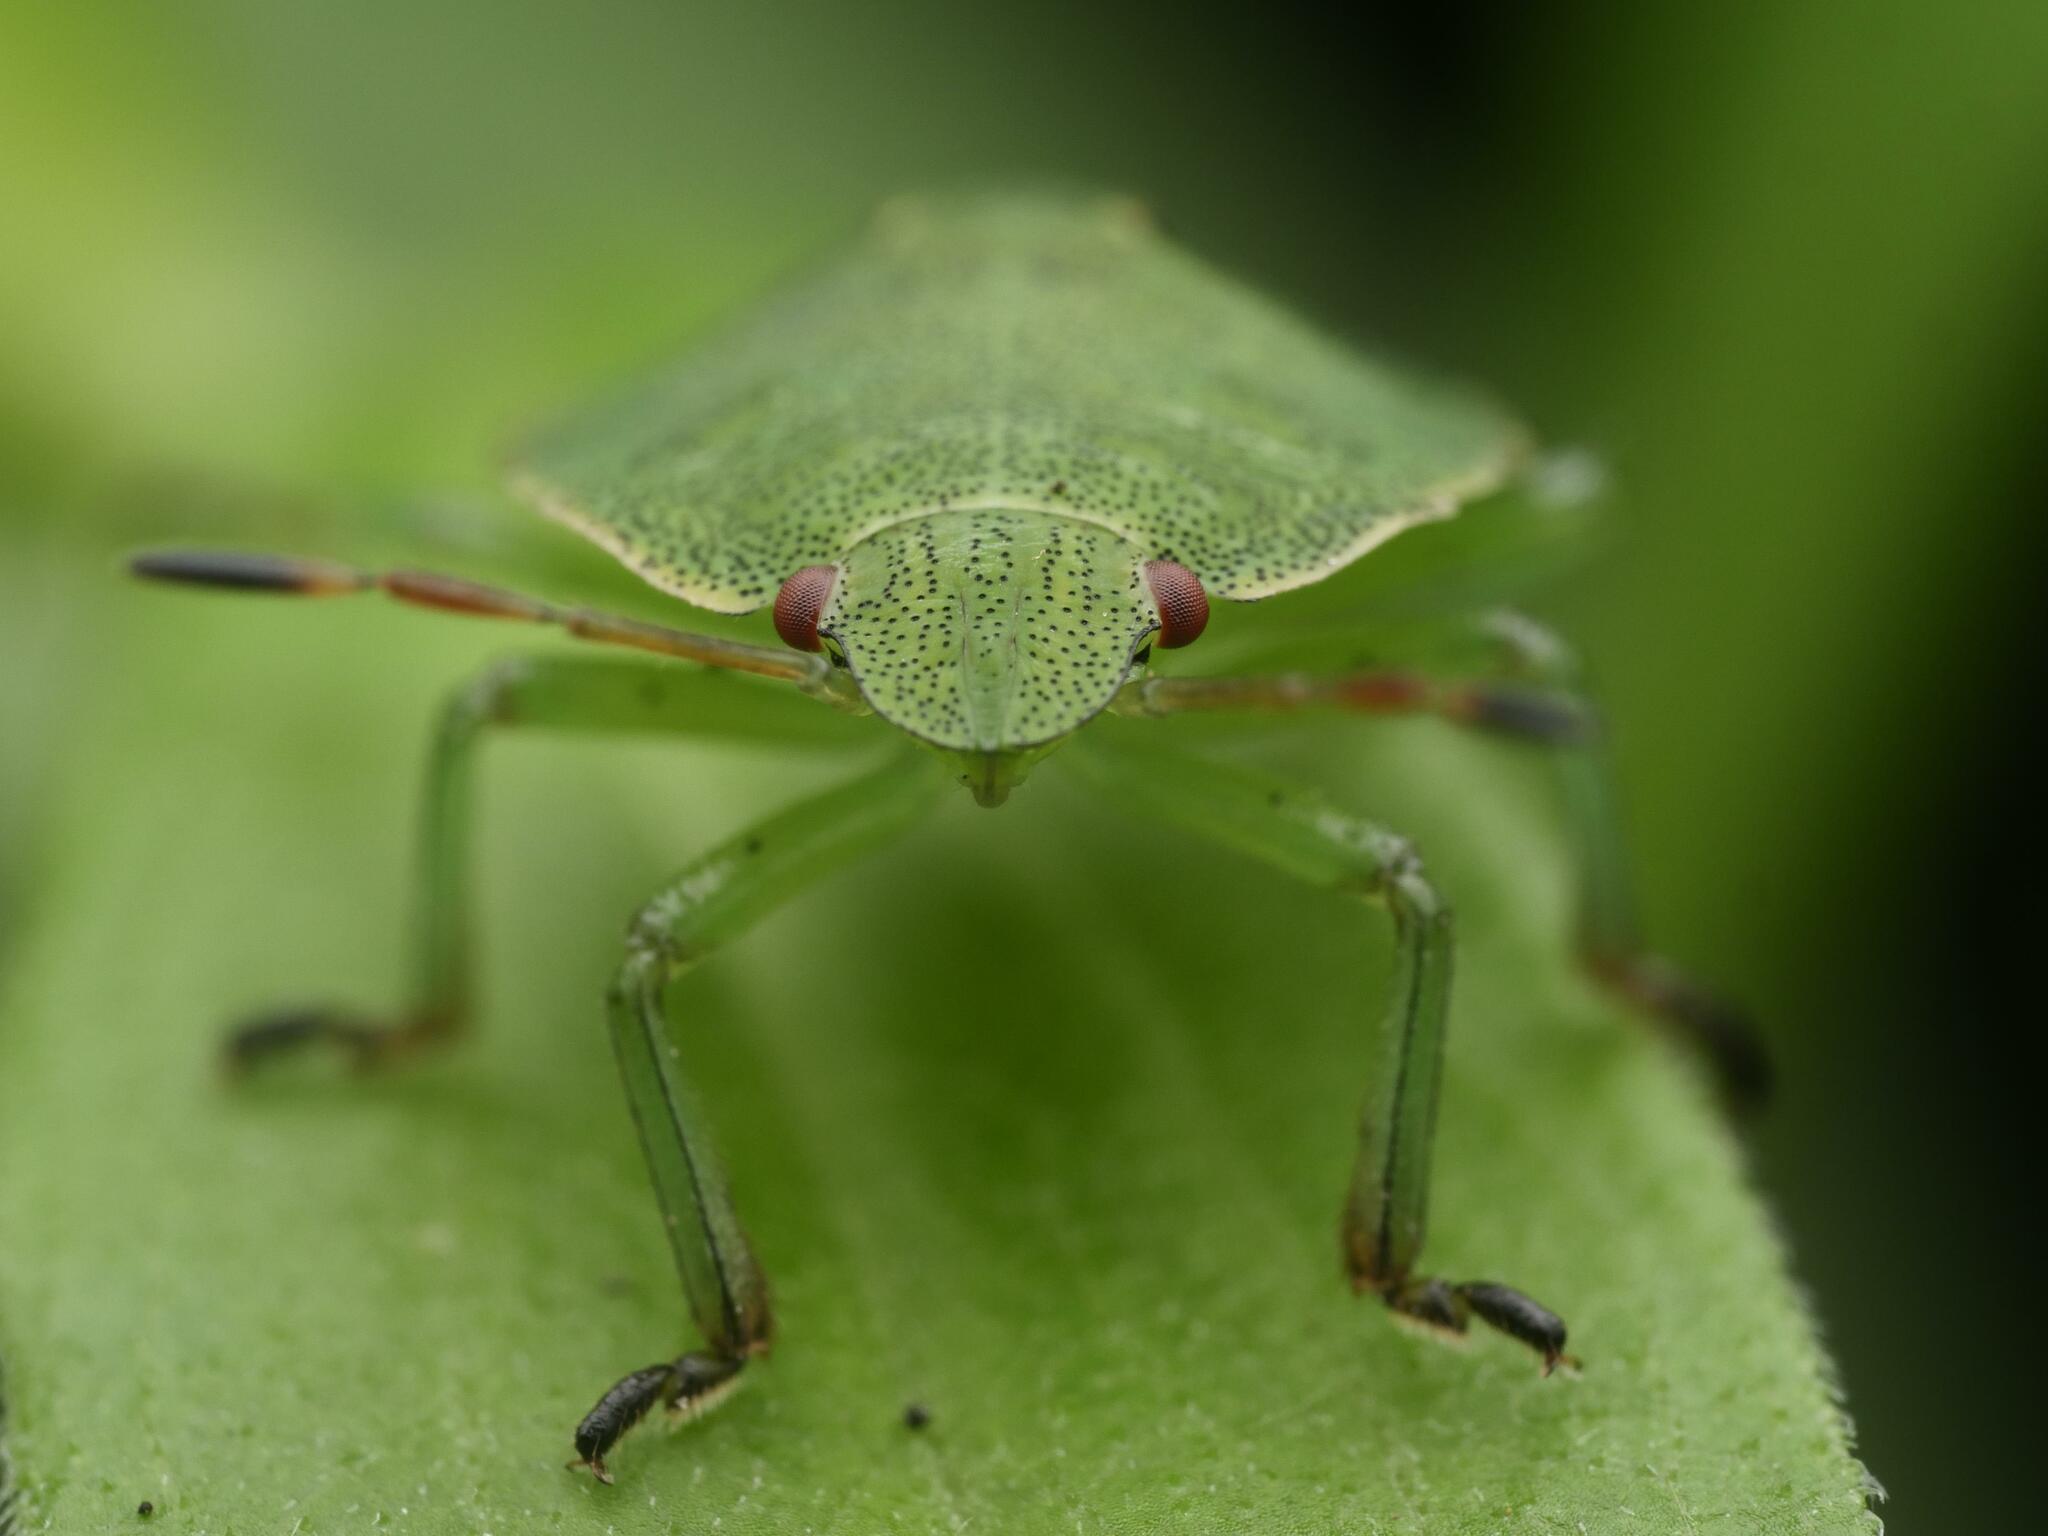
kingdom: Animalia
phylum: Arthropoda
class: Insecta
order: Hemiptera
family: Pentatomidae
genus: Palomena
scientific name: Palomena prasina
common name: Green shieldbug
